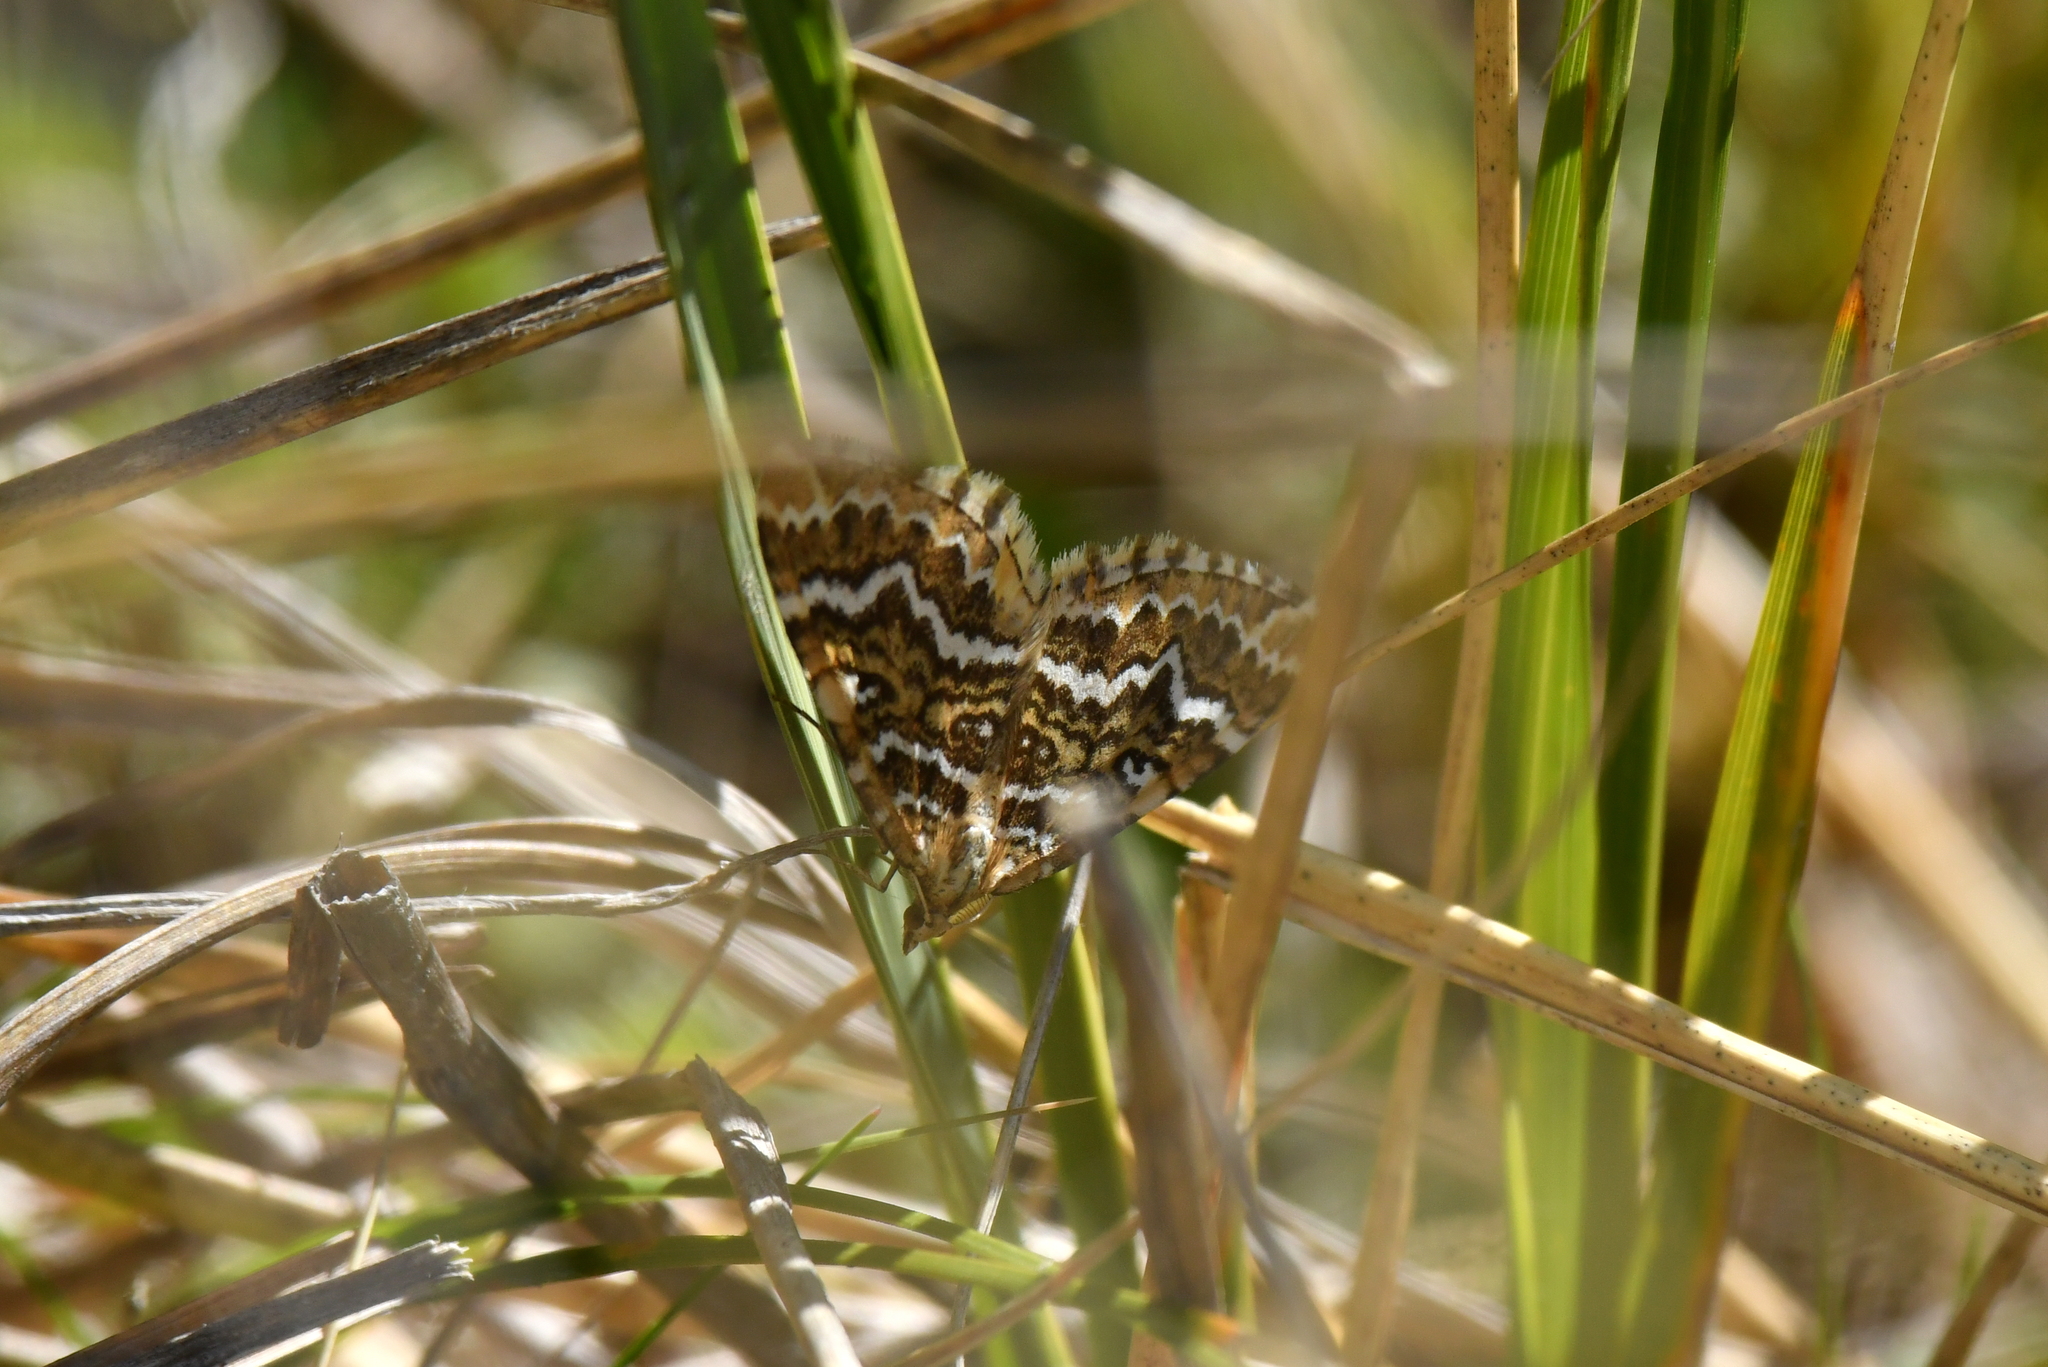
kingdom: Animalia
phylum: Arthropoda
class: Insecta
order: Lepidoptera
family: Geometridae
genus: Asaphodes
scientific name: Asaphodes clarata
